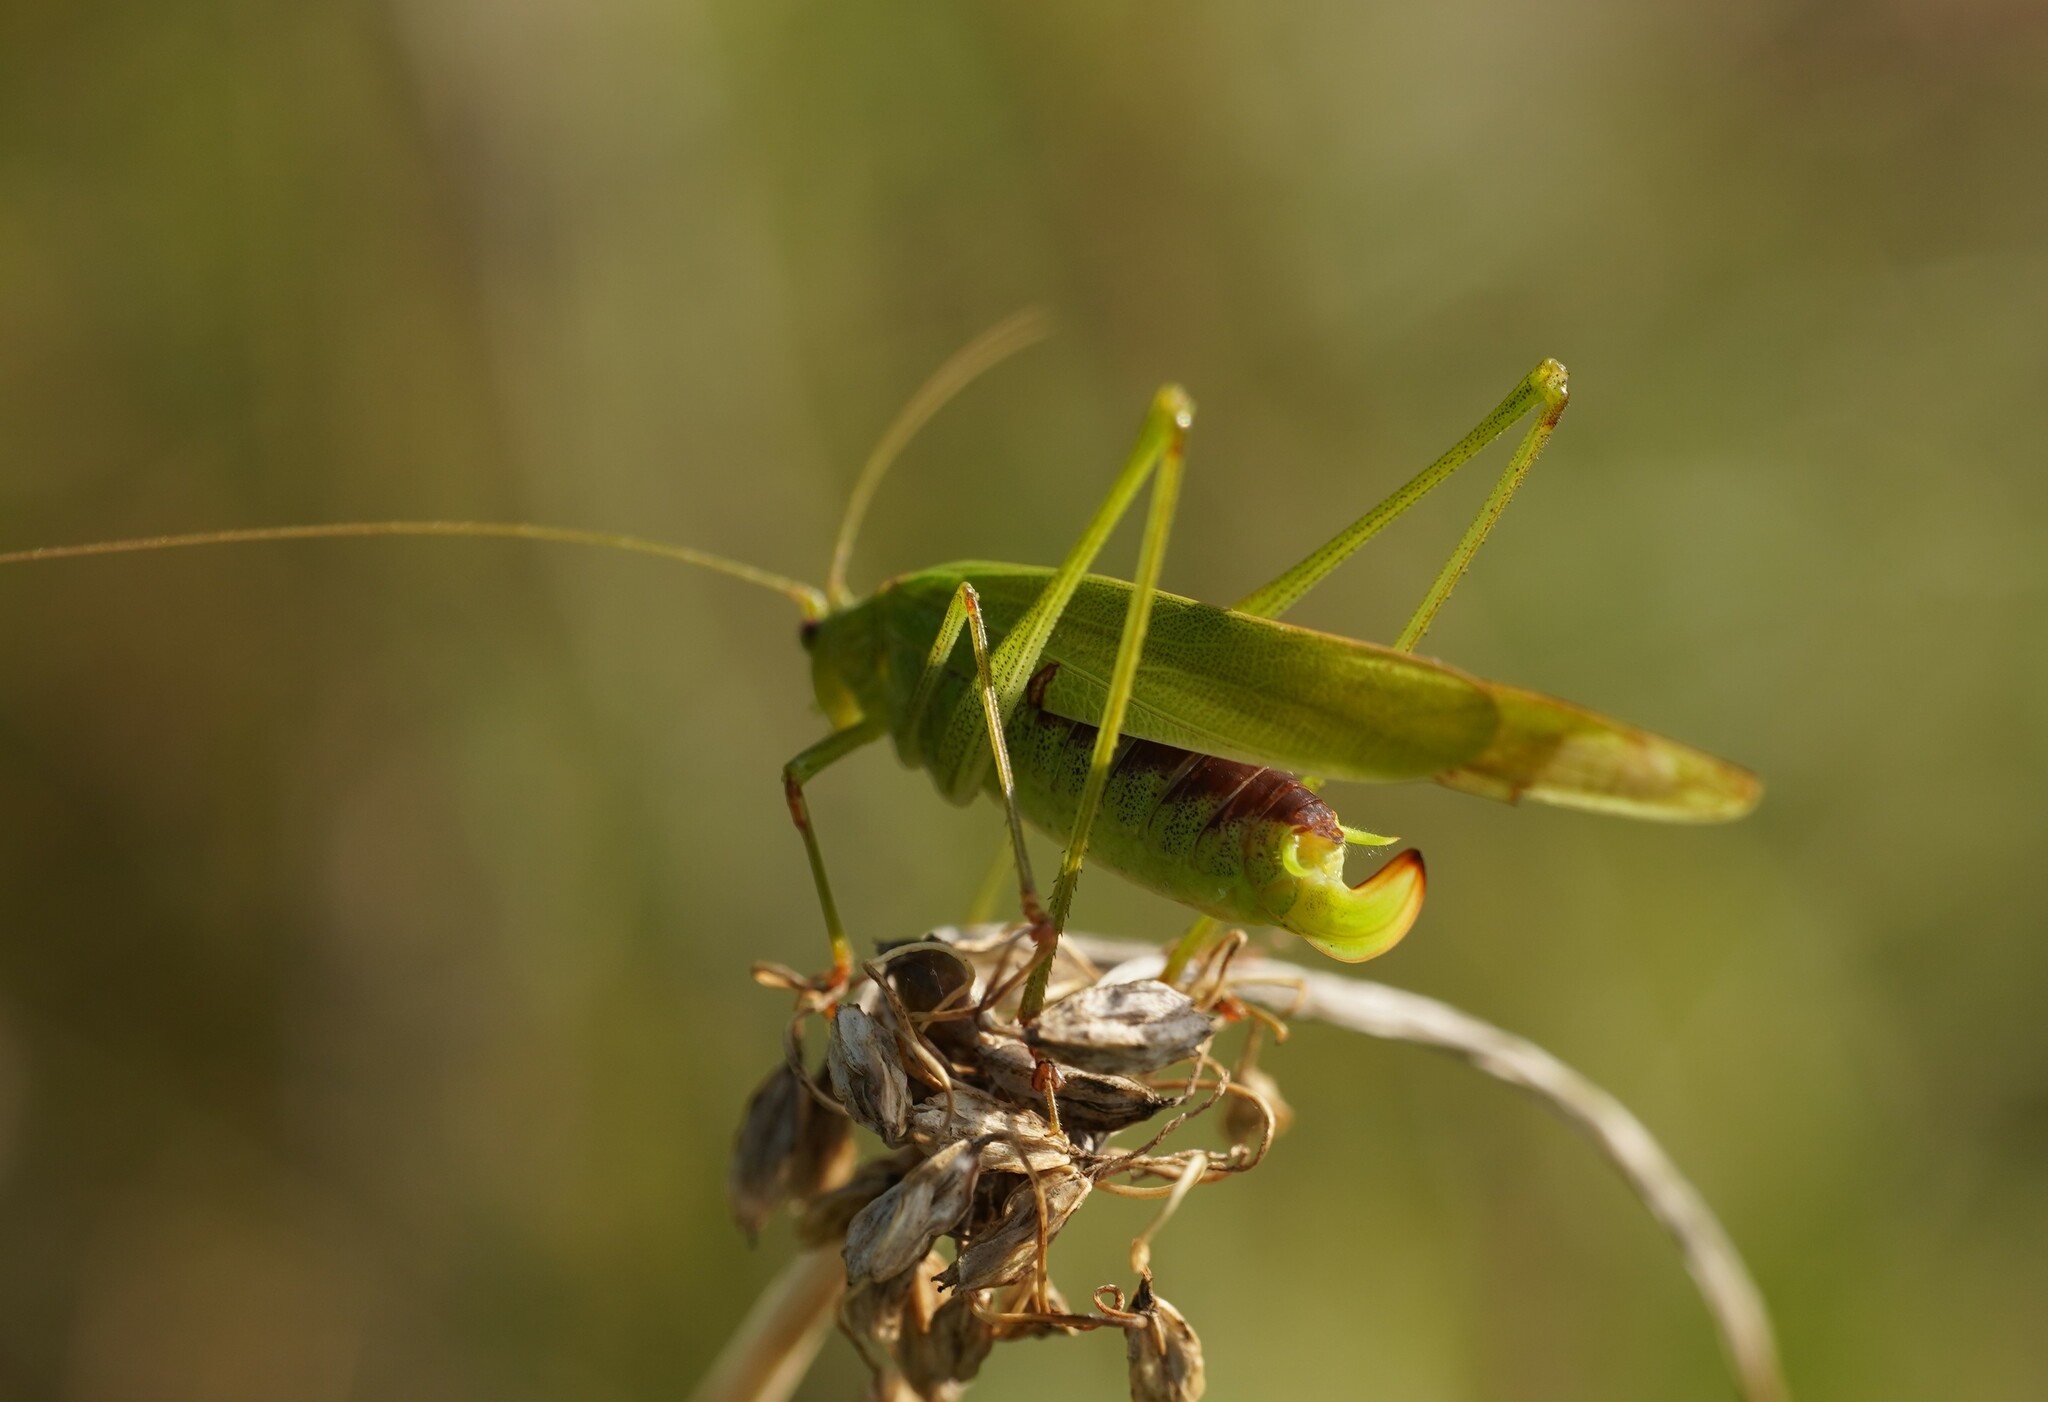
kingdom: Animalia
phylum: Arthropoda
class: Insecta
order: Orthoptera
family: Tettigoniidae
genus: Phaneroptera
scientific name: Phaneroptera falcata
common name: Sickle-bearing bush-cricket
